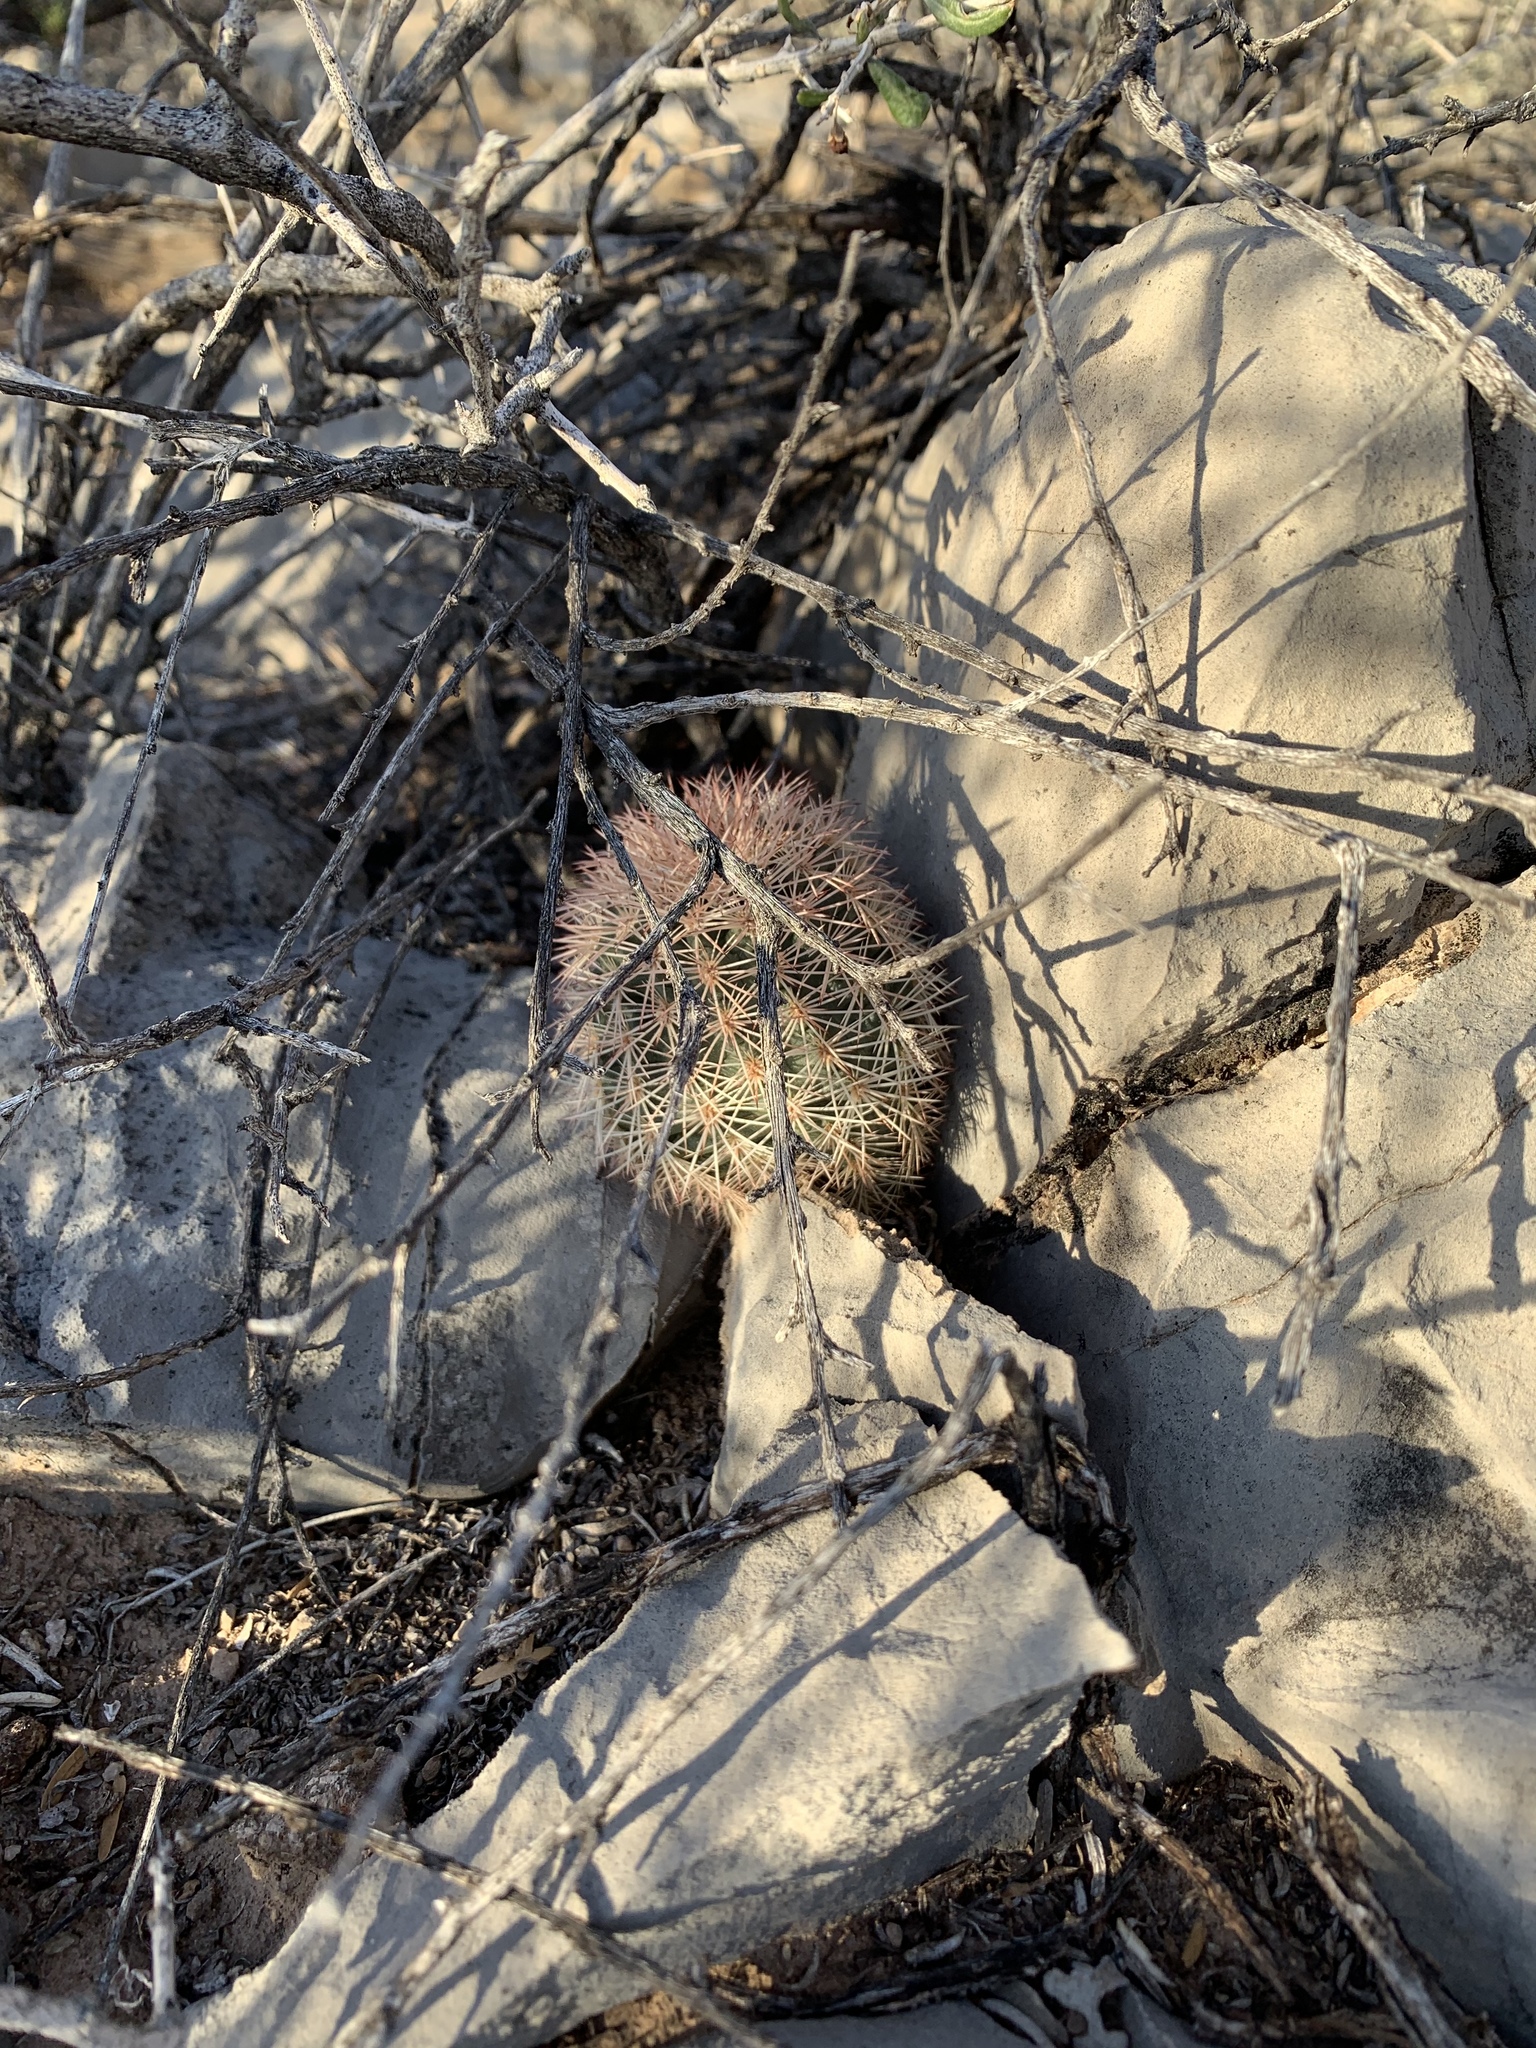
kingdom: Plantae
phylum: Tracheophyta
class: Magnoliopsida
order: Caryophyllales
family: Cactaceae
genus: Echinocereus
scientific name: Echinocereus dasyacanthus
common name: Spiny hedgehog cactus
